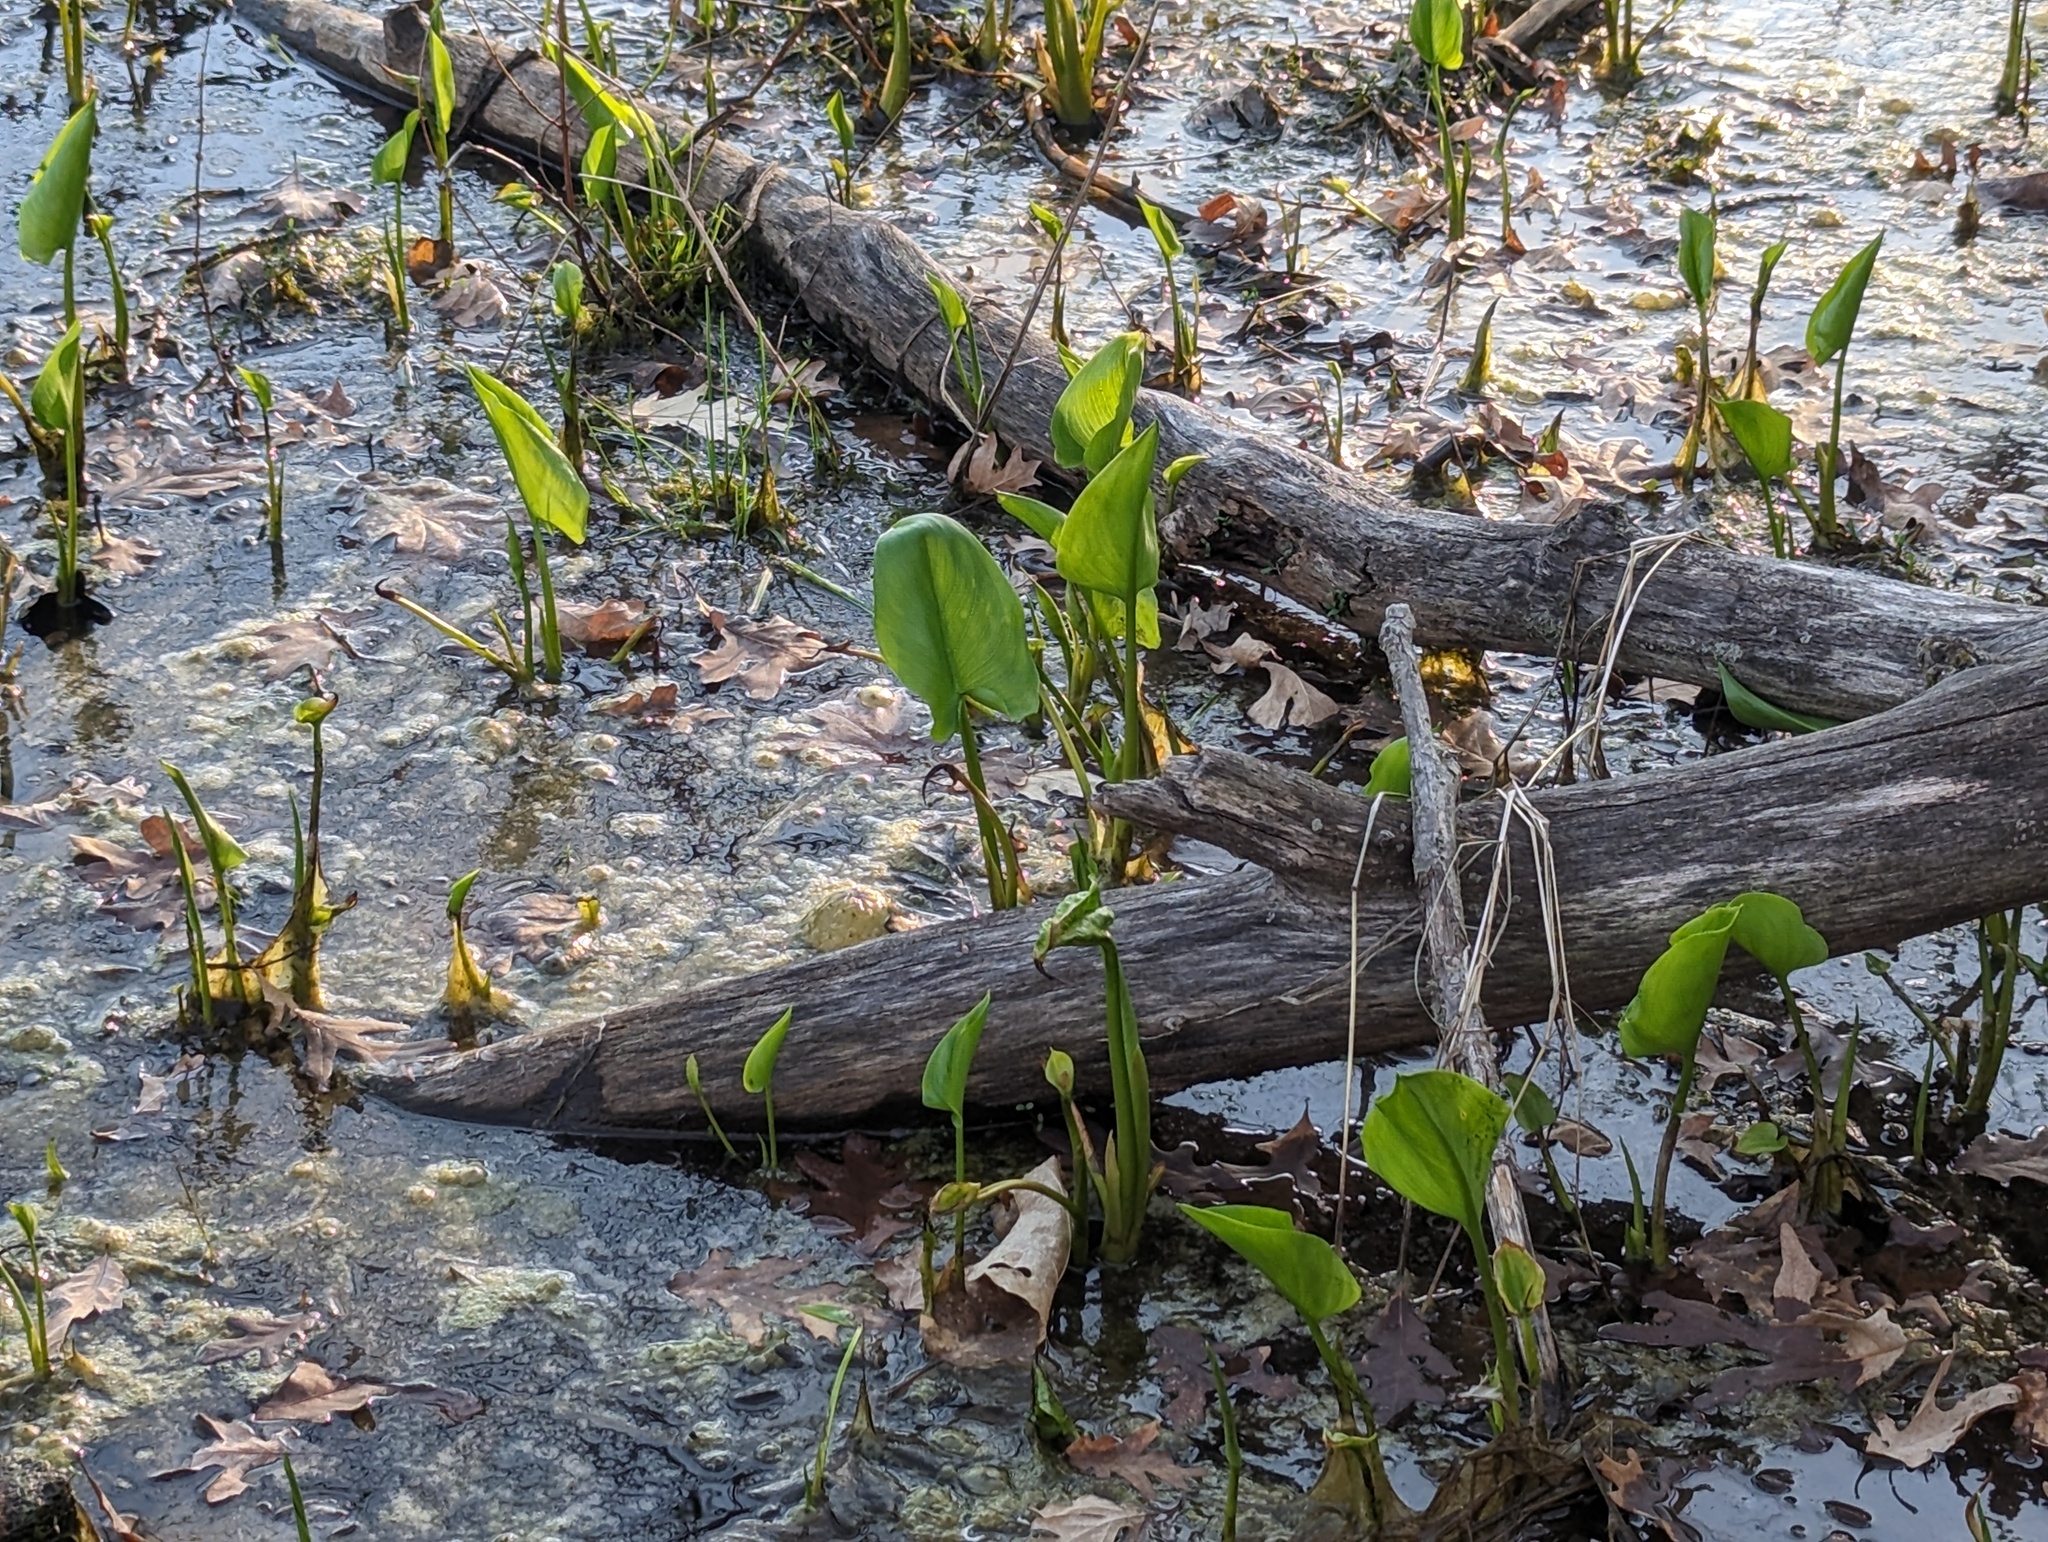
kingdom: Plantae
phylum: Tracheophyta
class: Liliopsida
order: Alismatales
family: Araceae
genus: Calla
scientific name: Calla palustris
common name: Bog arum
